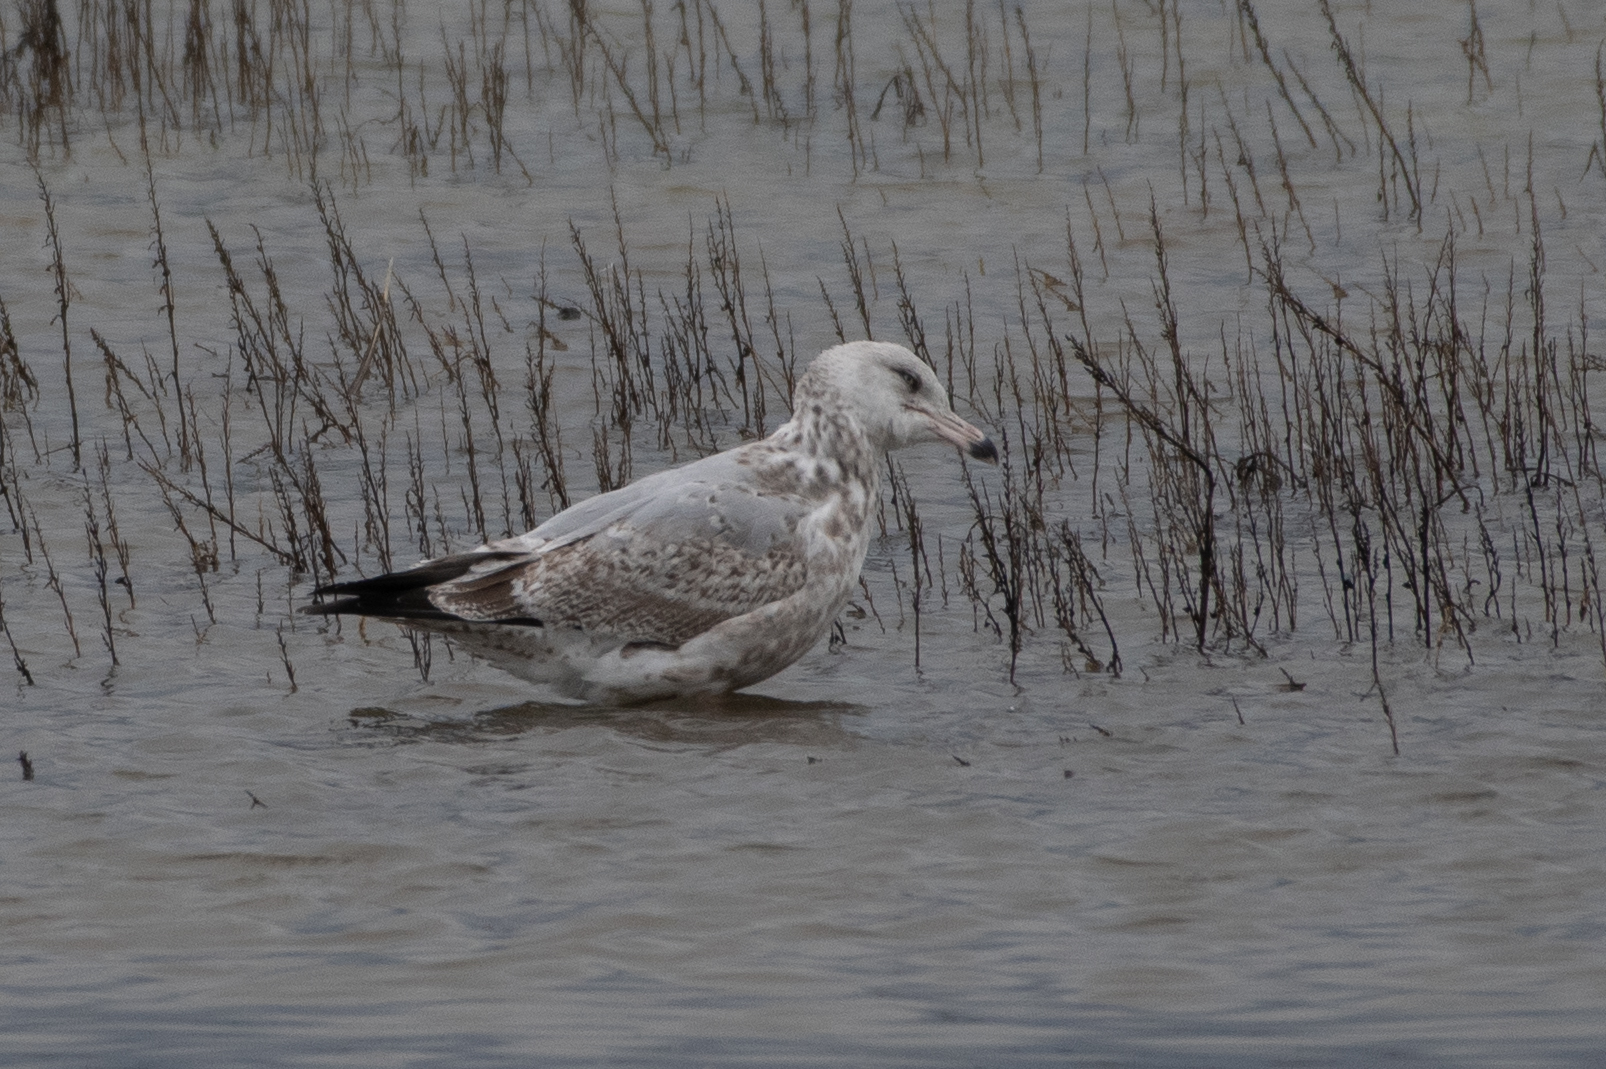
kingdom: Animalia
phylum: Chordata
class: Aves
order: Charadriiformes
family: Laridae
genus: Larus
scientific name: Larus argentatus
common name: Herring gull
